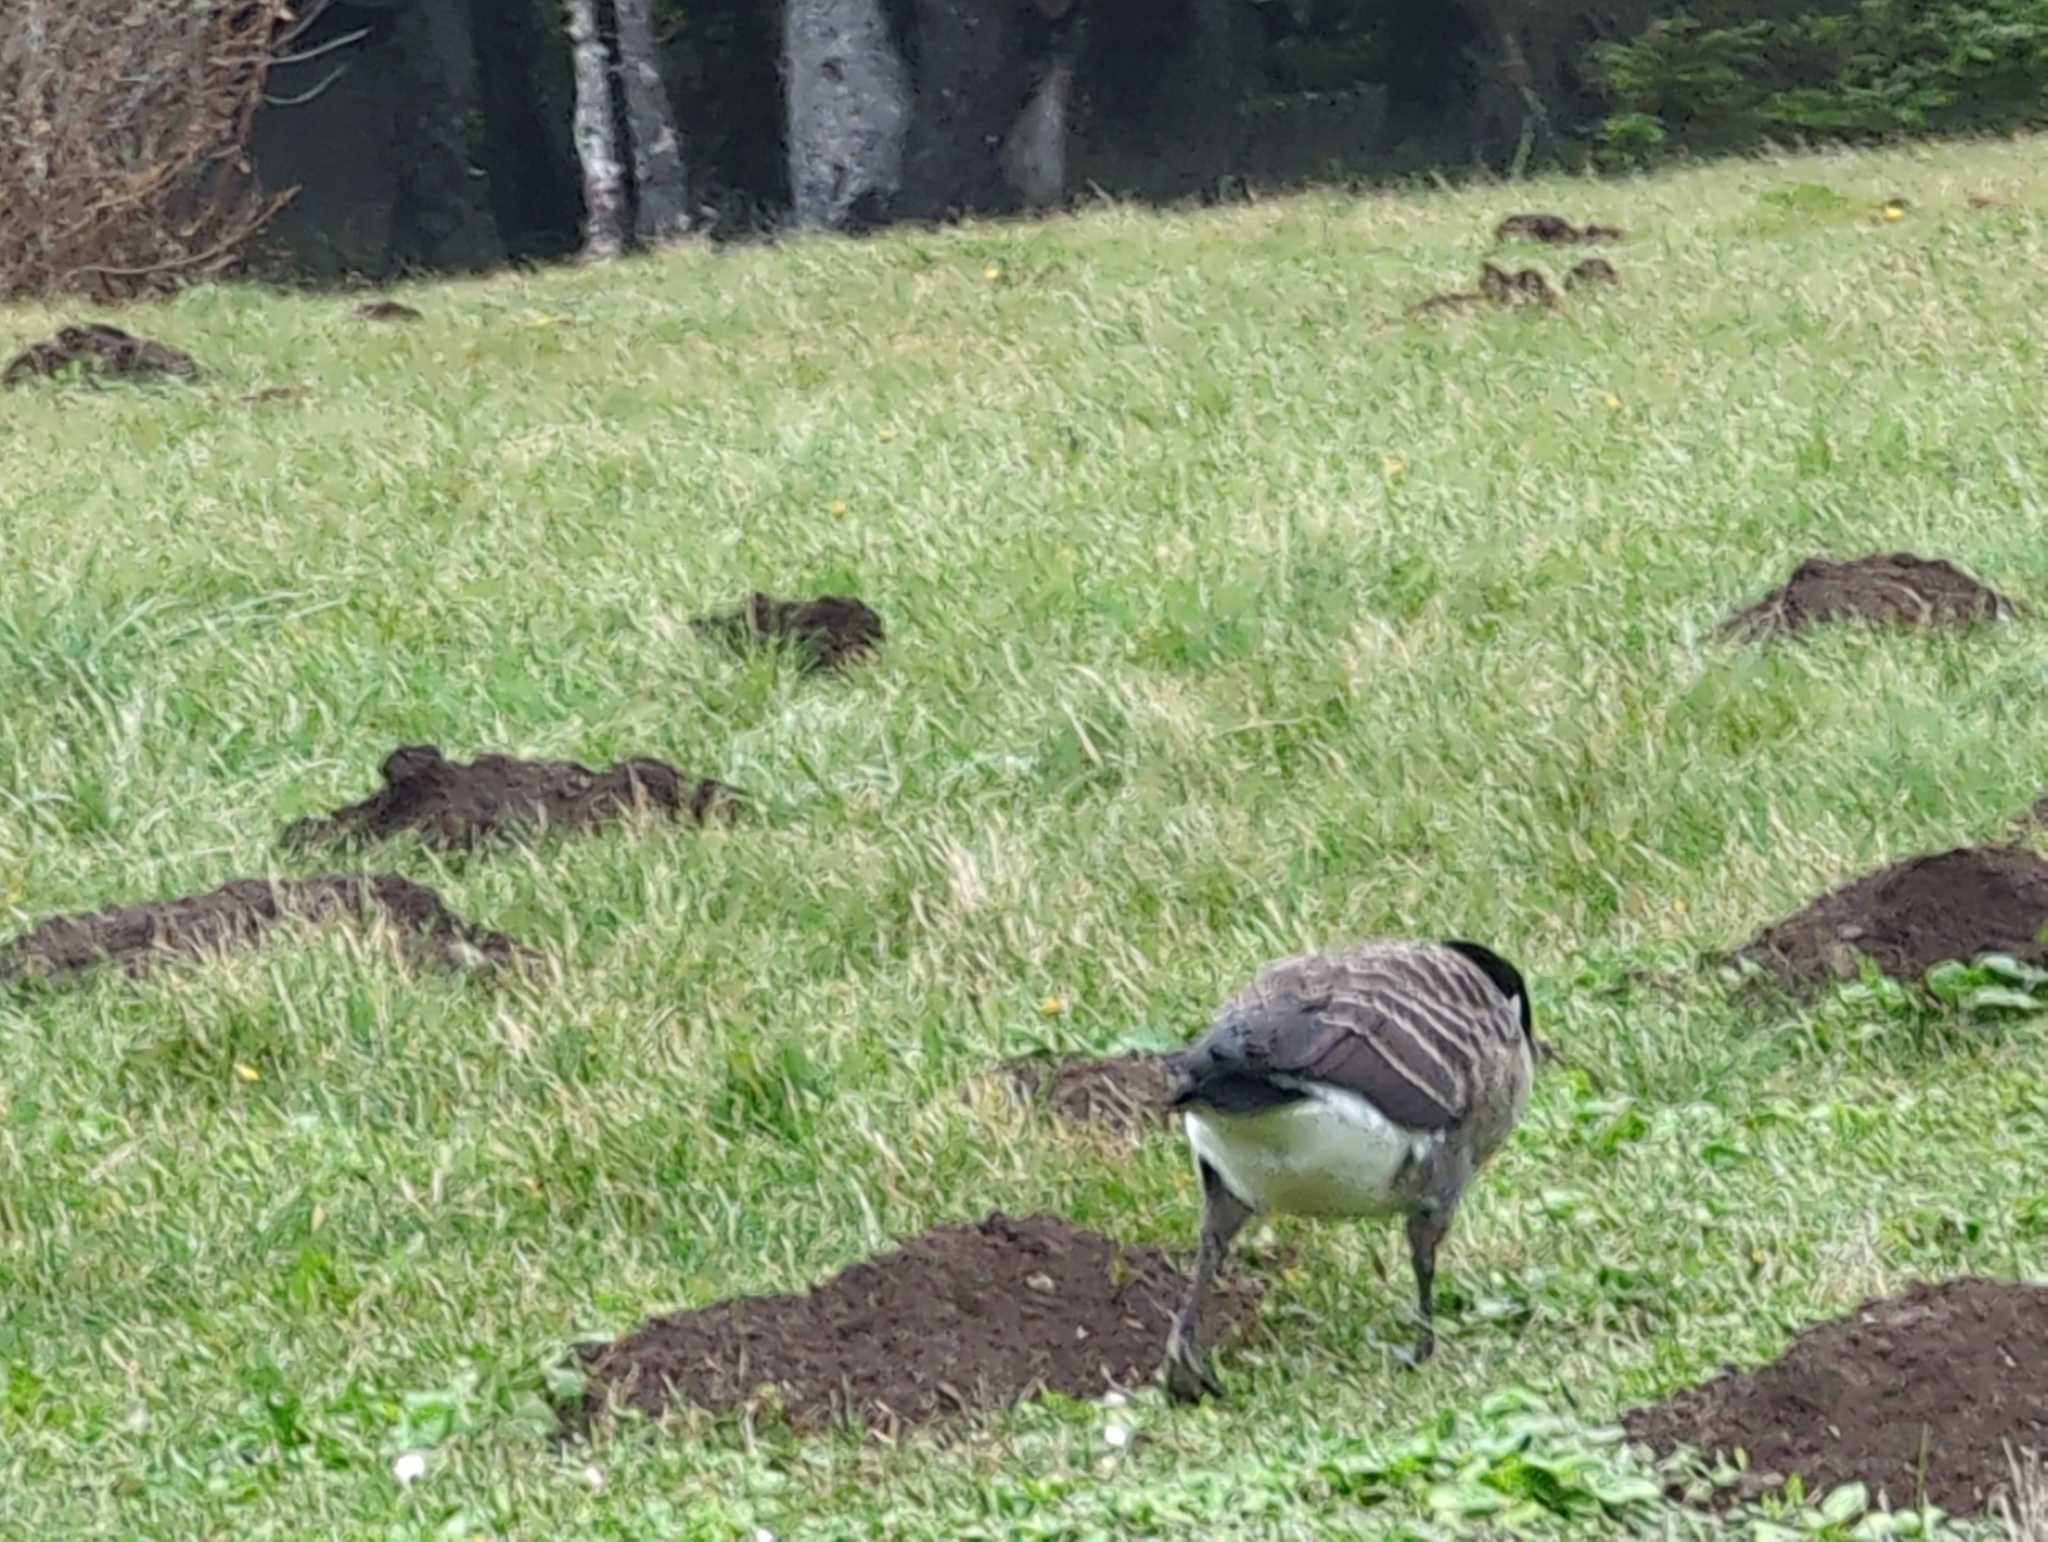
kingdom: Animalia
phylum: Chordata
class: Aves
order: Anseriformes
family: Anatidae
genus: Branta
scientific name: Branta canadensis
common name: Canada goose
